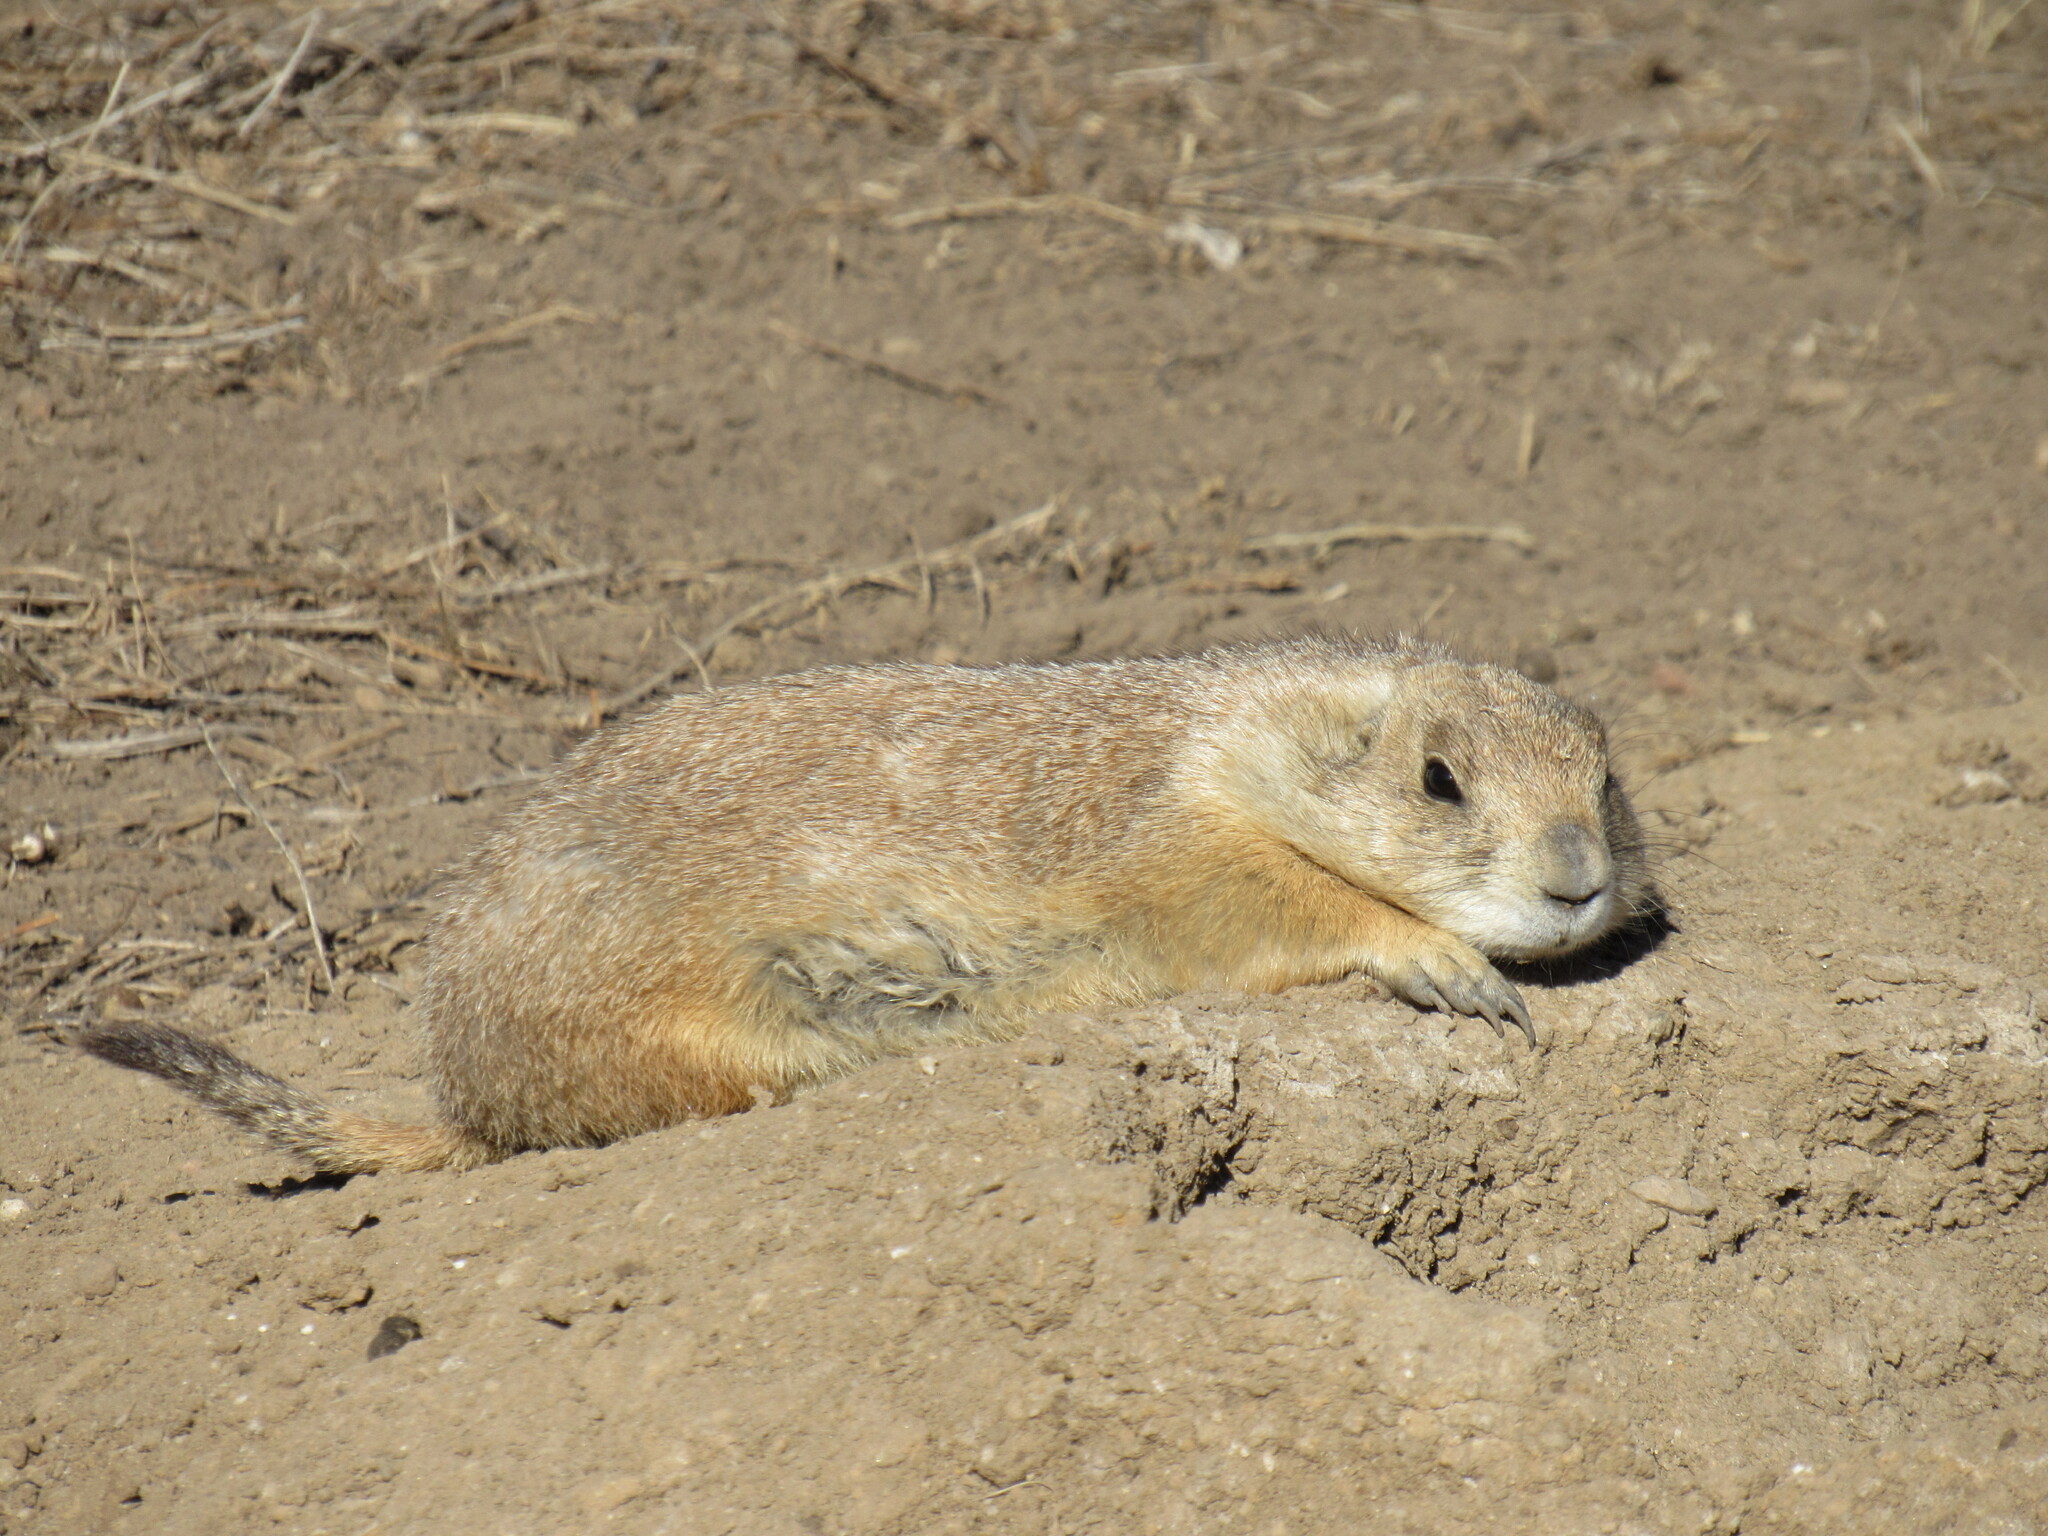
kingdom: Animalia
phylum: Chordata
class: Mammalia
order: Rodentia
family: Sciuridae
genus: Cynomys
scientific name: Cynomys ludovicianus
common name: Black-tailed prairie dog
